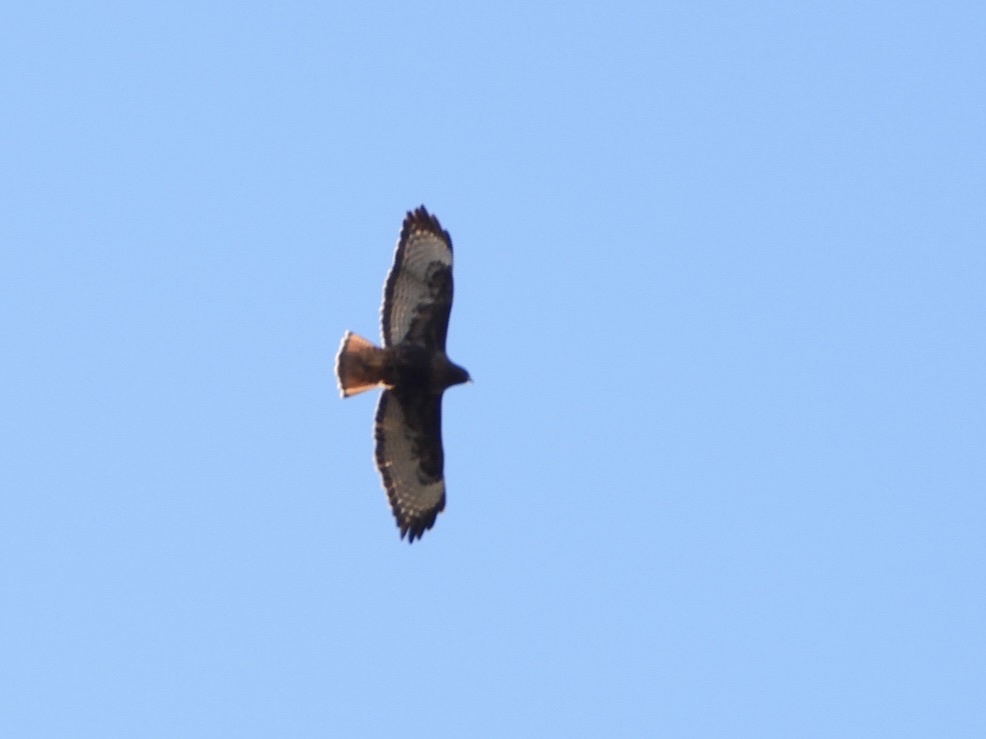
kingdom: Animalia
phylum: Chordata
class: Aves
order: Accipitriformes
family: Accipitridae
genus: Buteo
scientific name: Buteo jamaicensis
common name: Red-tailed hawk
